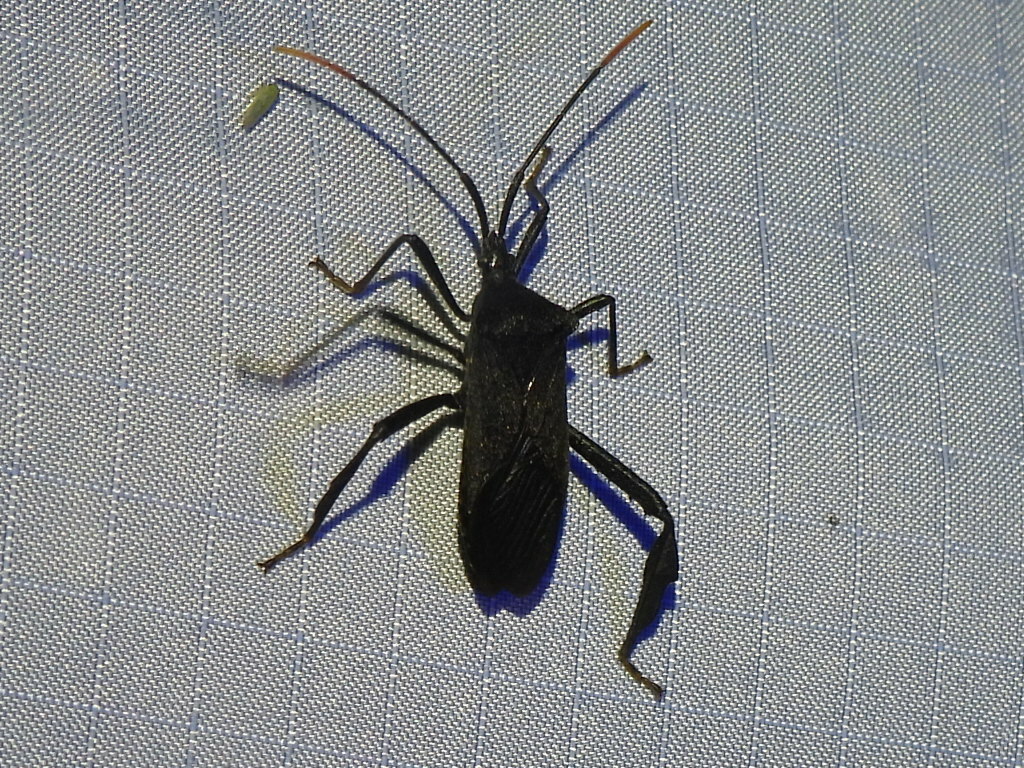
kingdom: Animalia
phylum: Arthropoda
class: Insecta
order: Hemiptera
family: Coreidae
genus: Acanthocephala
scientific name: Acanthocephala terminalis
